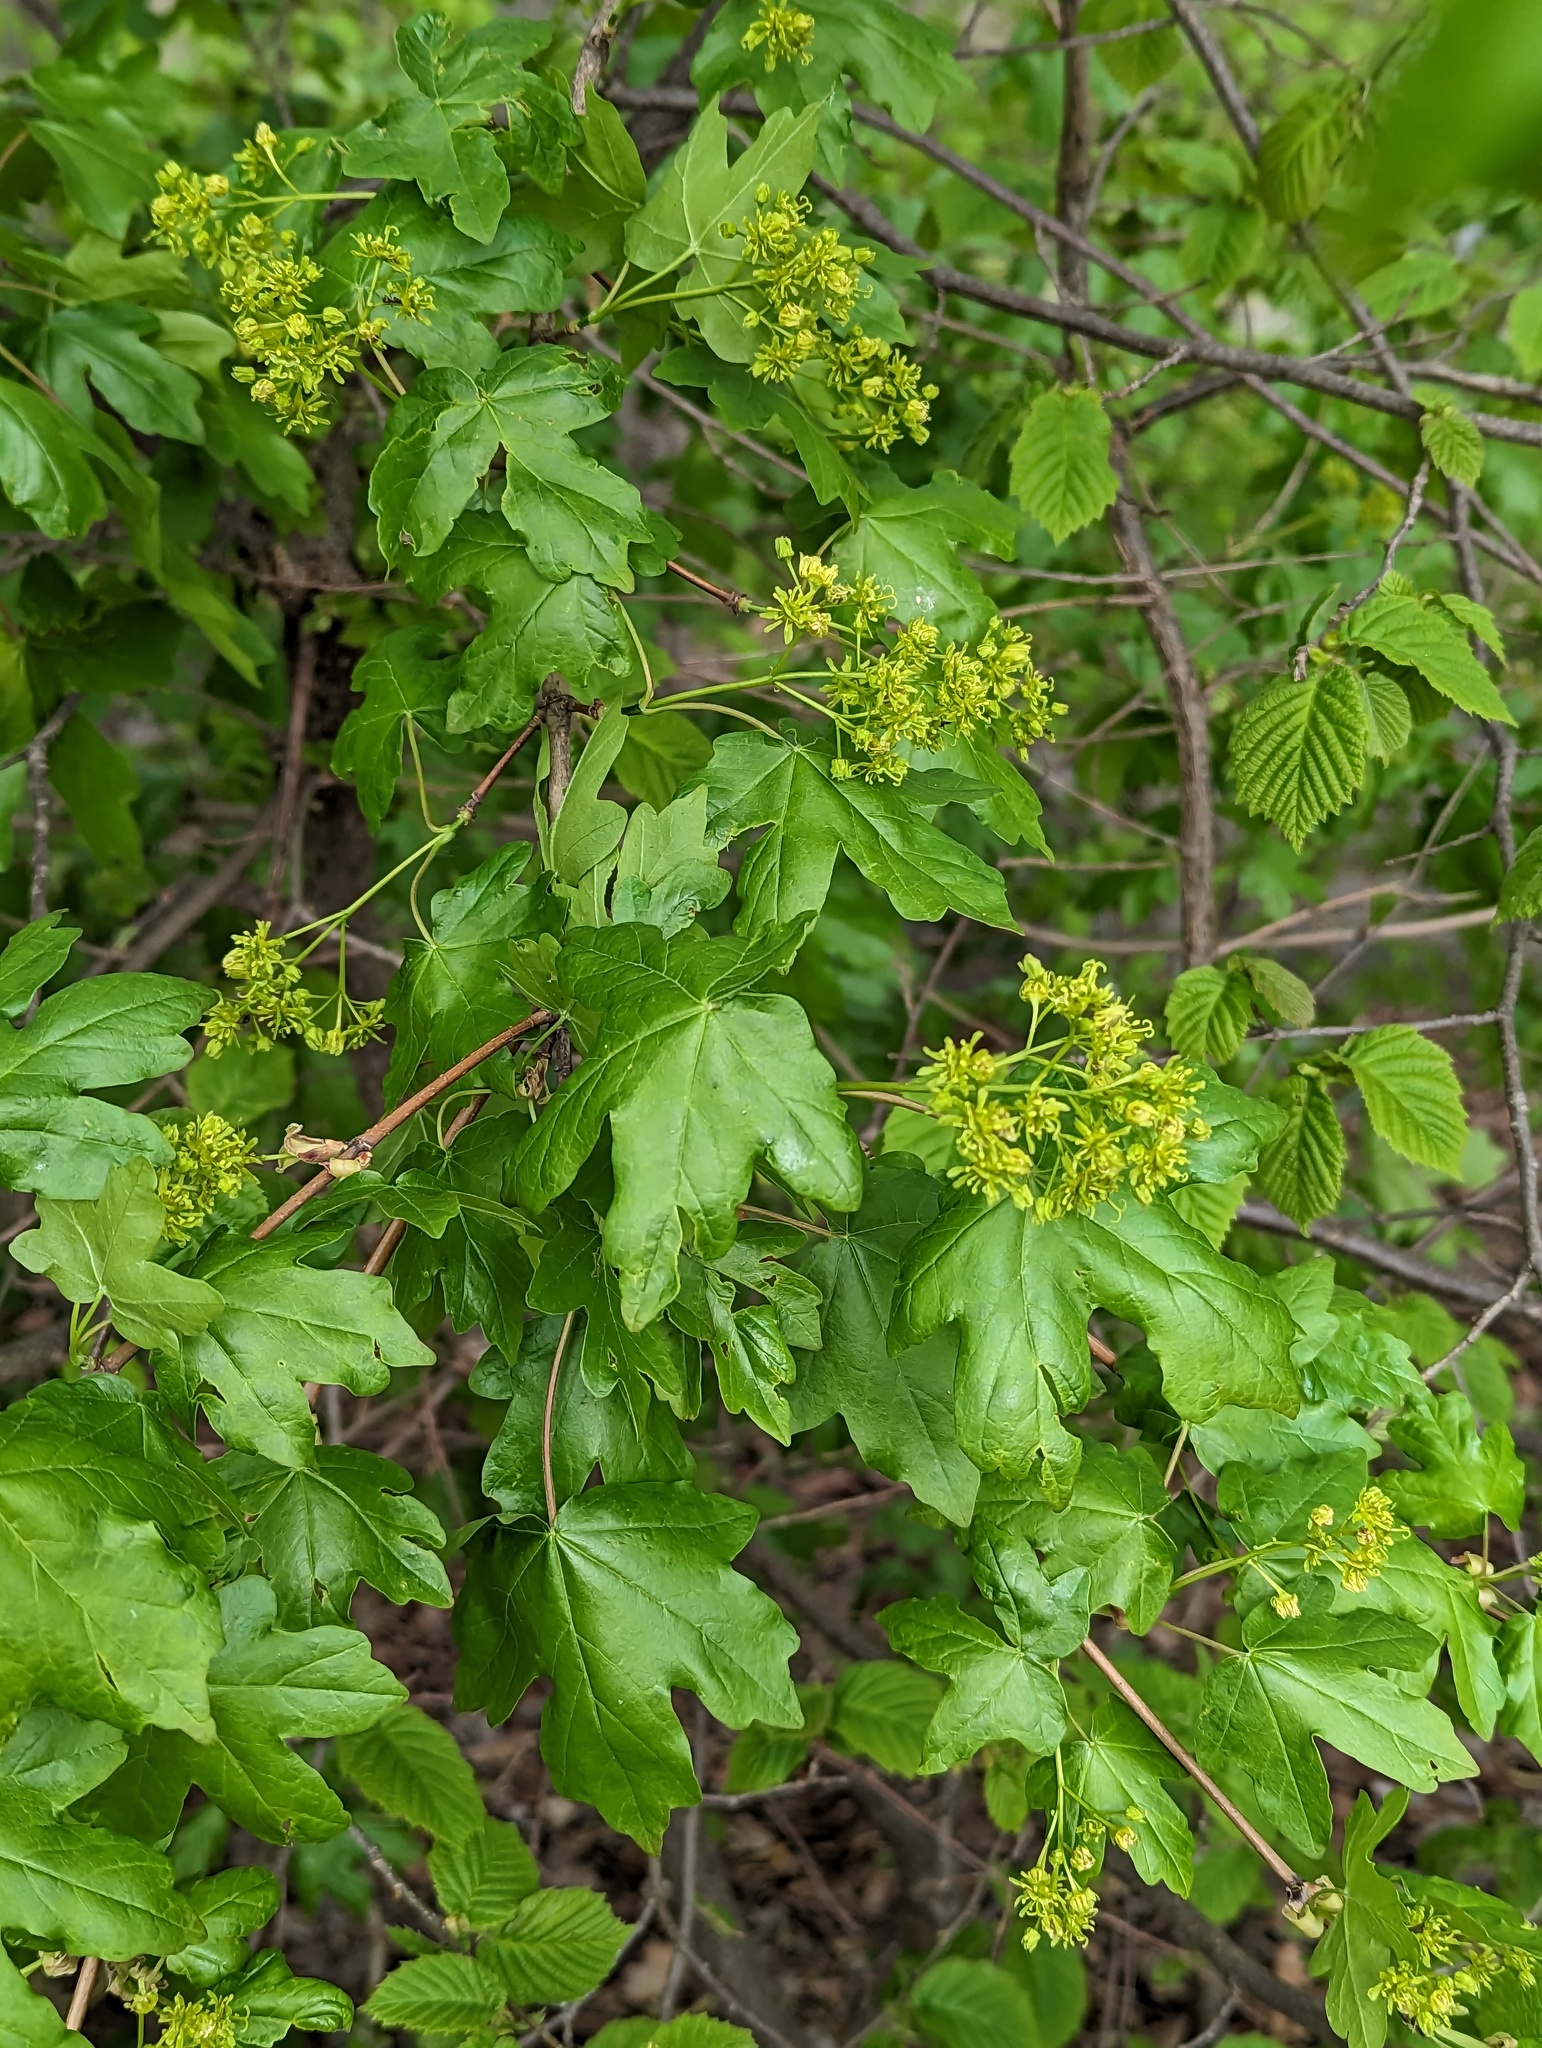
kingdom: Plantae
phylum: Tracheophyta
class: Magnoliopsida
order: Sapindales
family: Sapindaceae
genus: Acer
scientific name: Acer campestre
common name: Field maple
